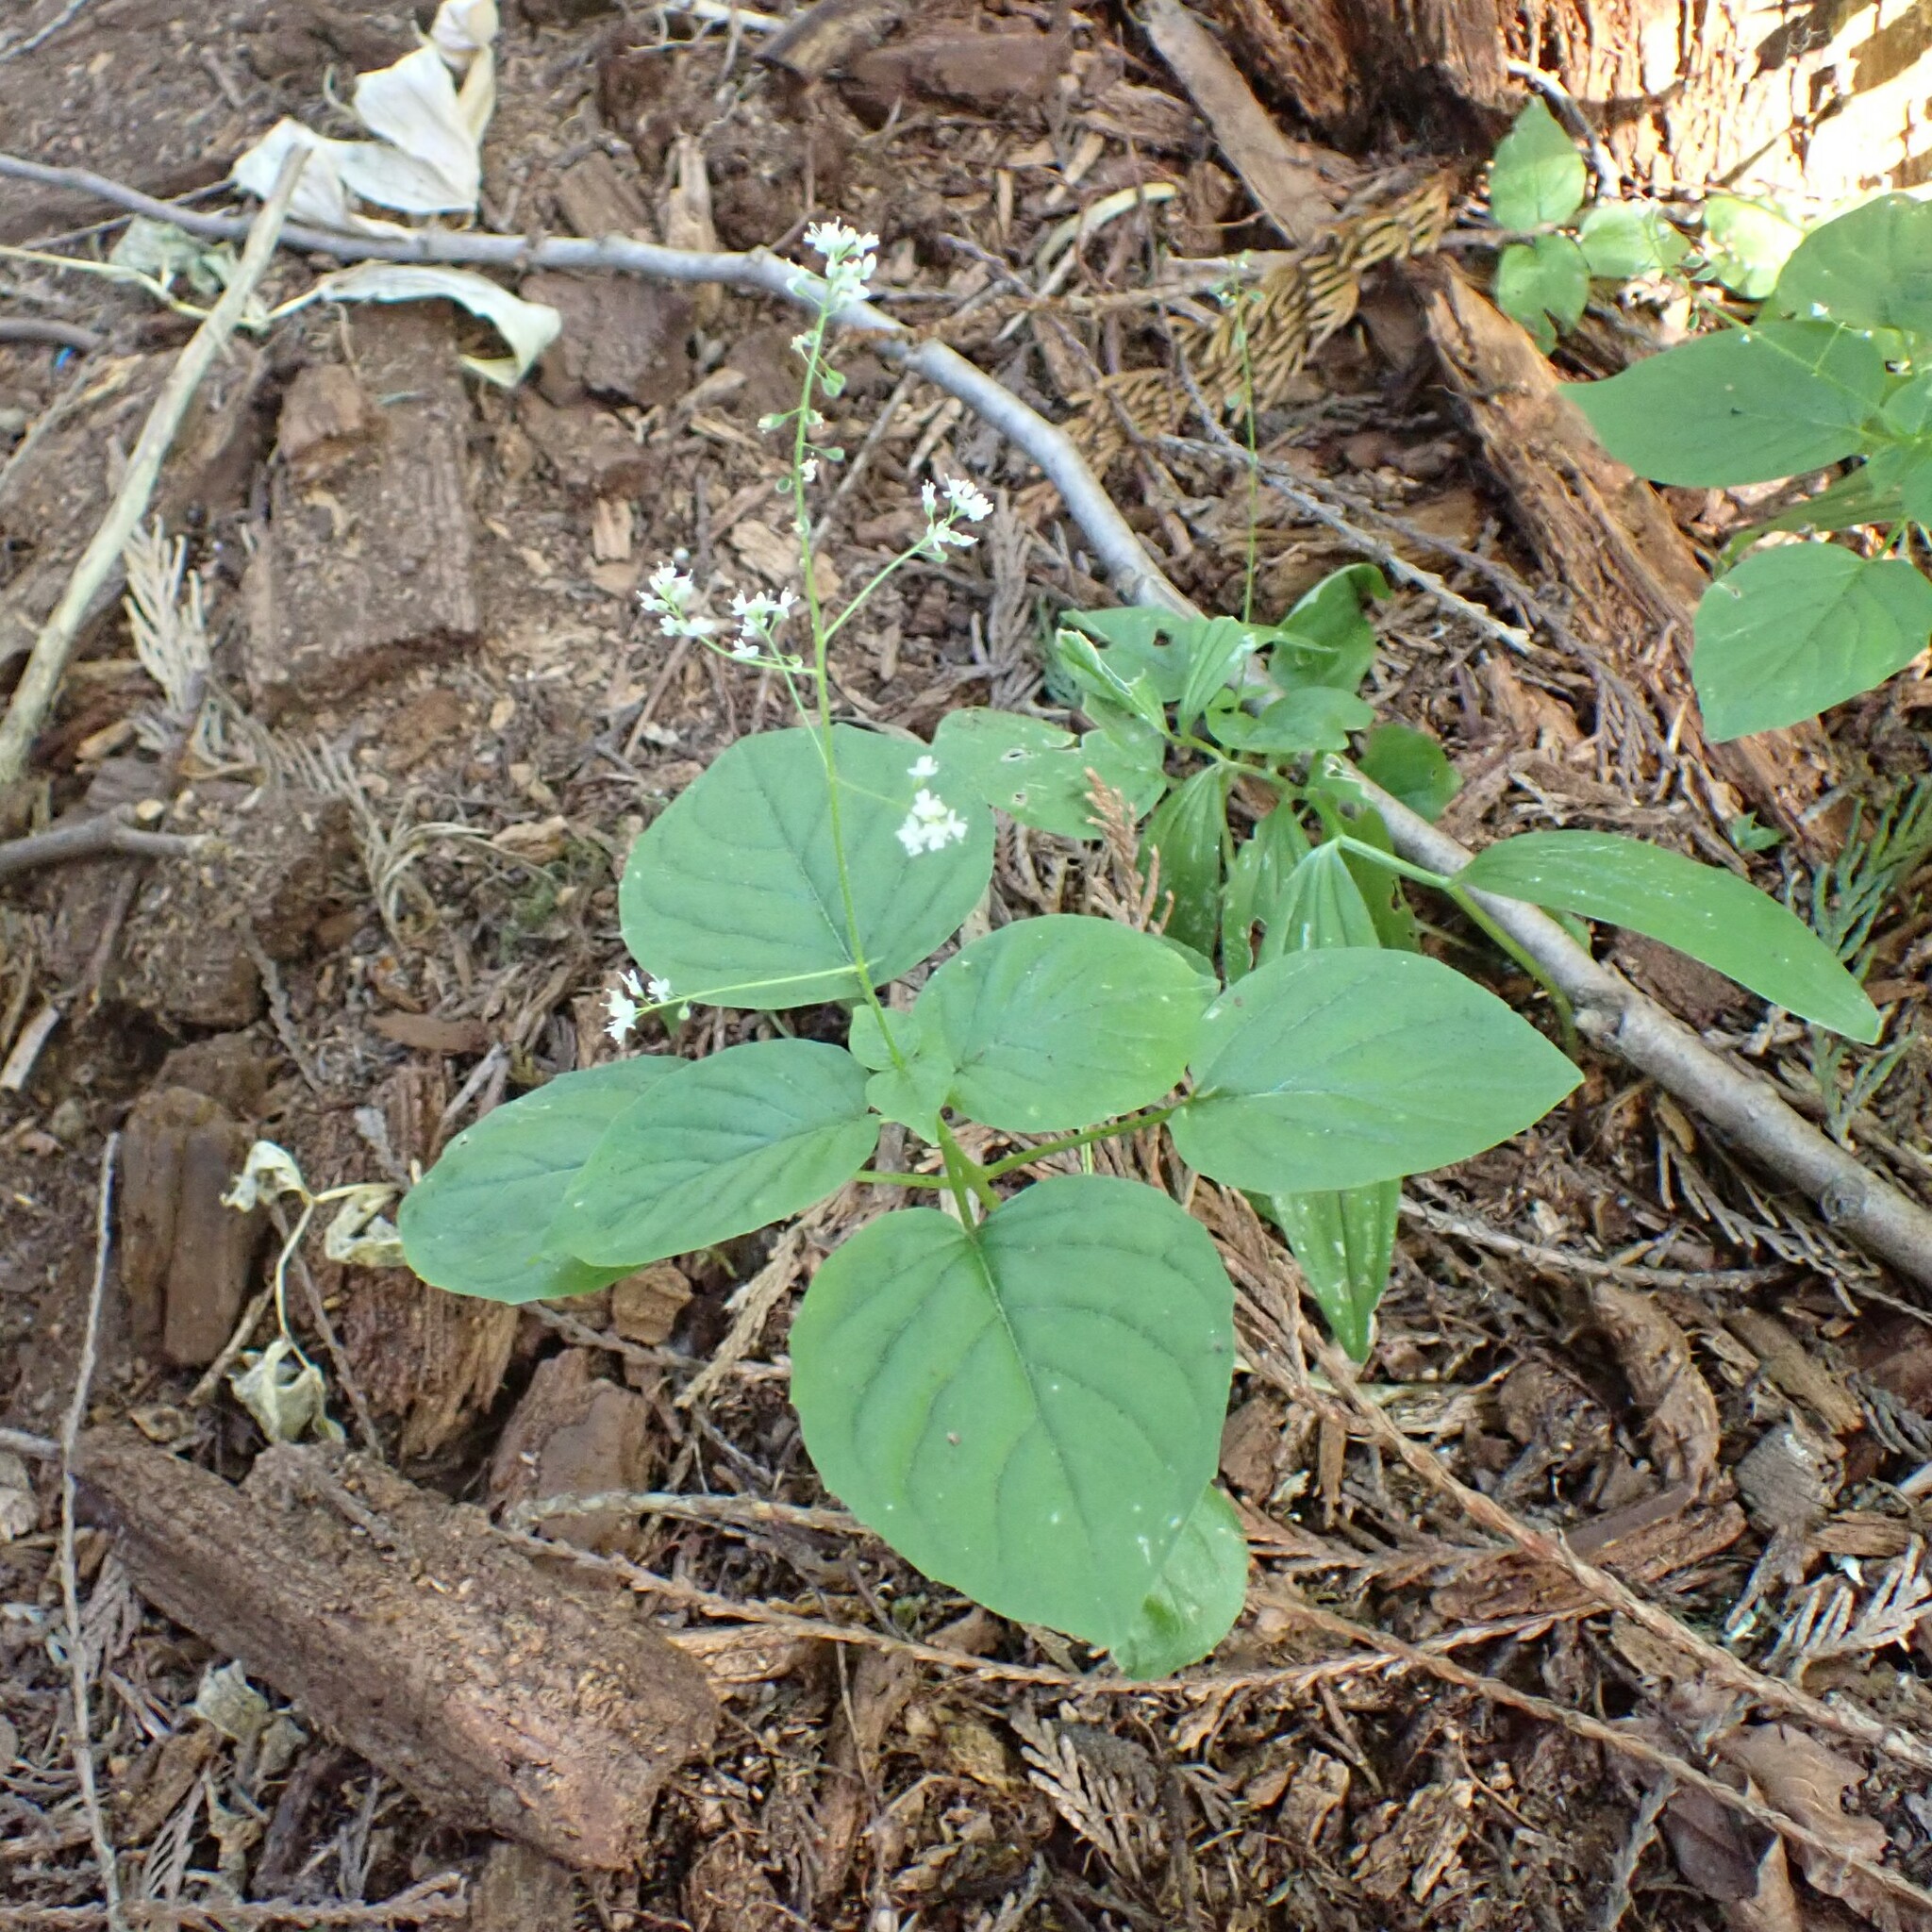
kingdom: Plantae
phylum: Tracheophyta
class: Magnoliopsida
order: Myrtales
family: Onagraceae
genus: Circaea
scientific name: Circaea alpina
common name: Alpine enchanter's-nightshade
